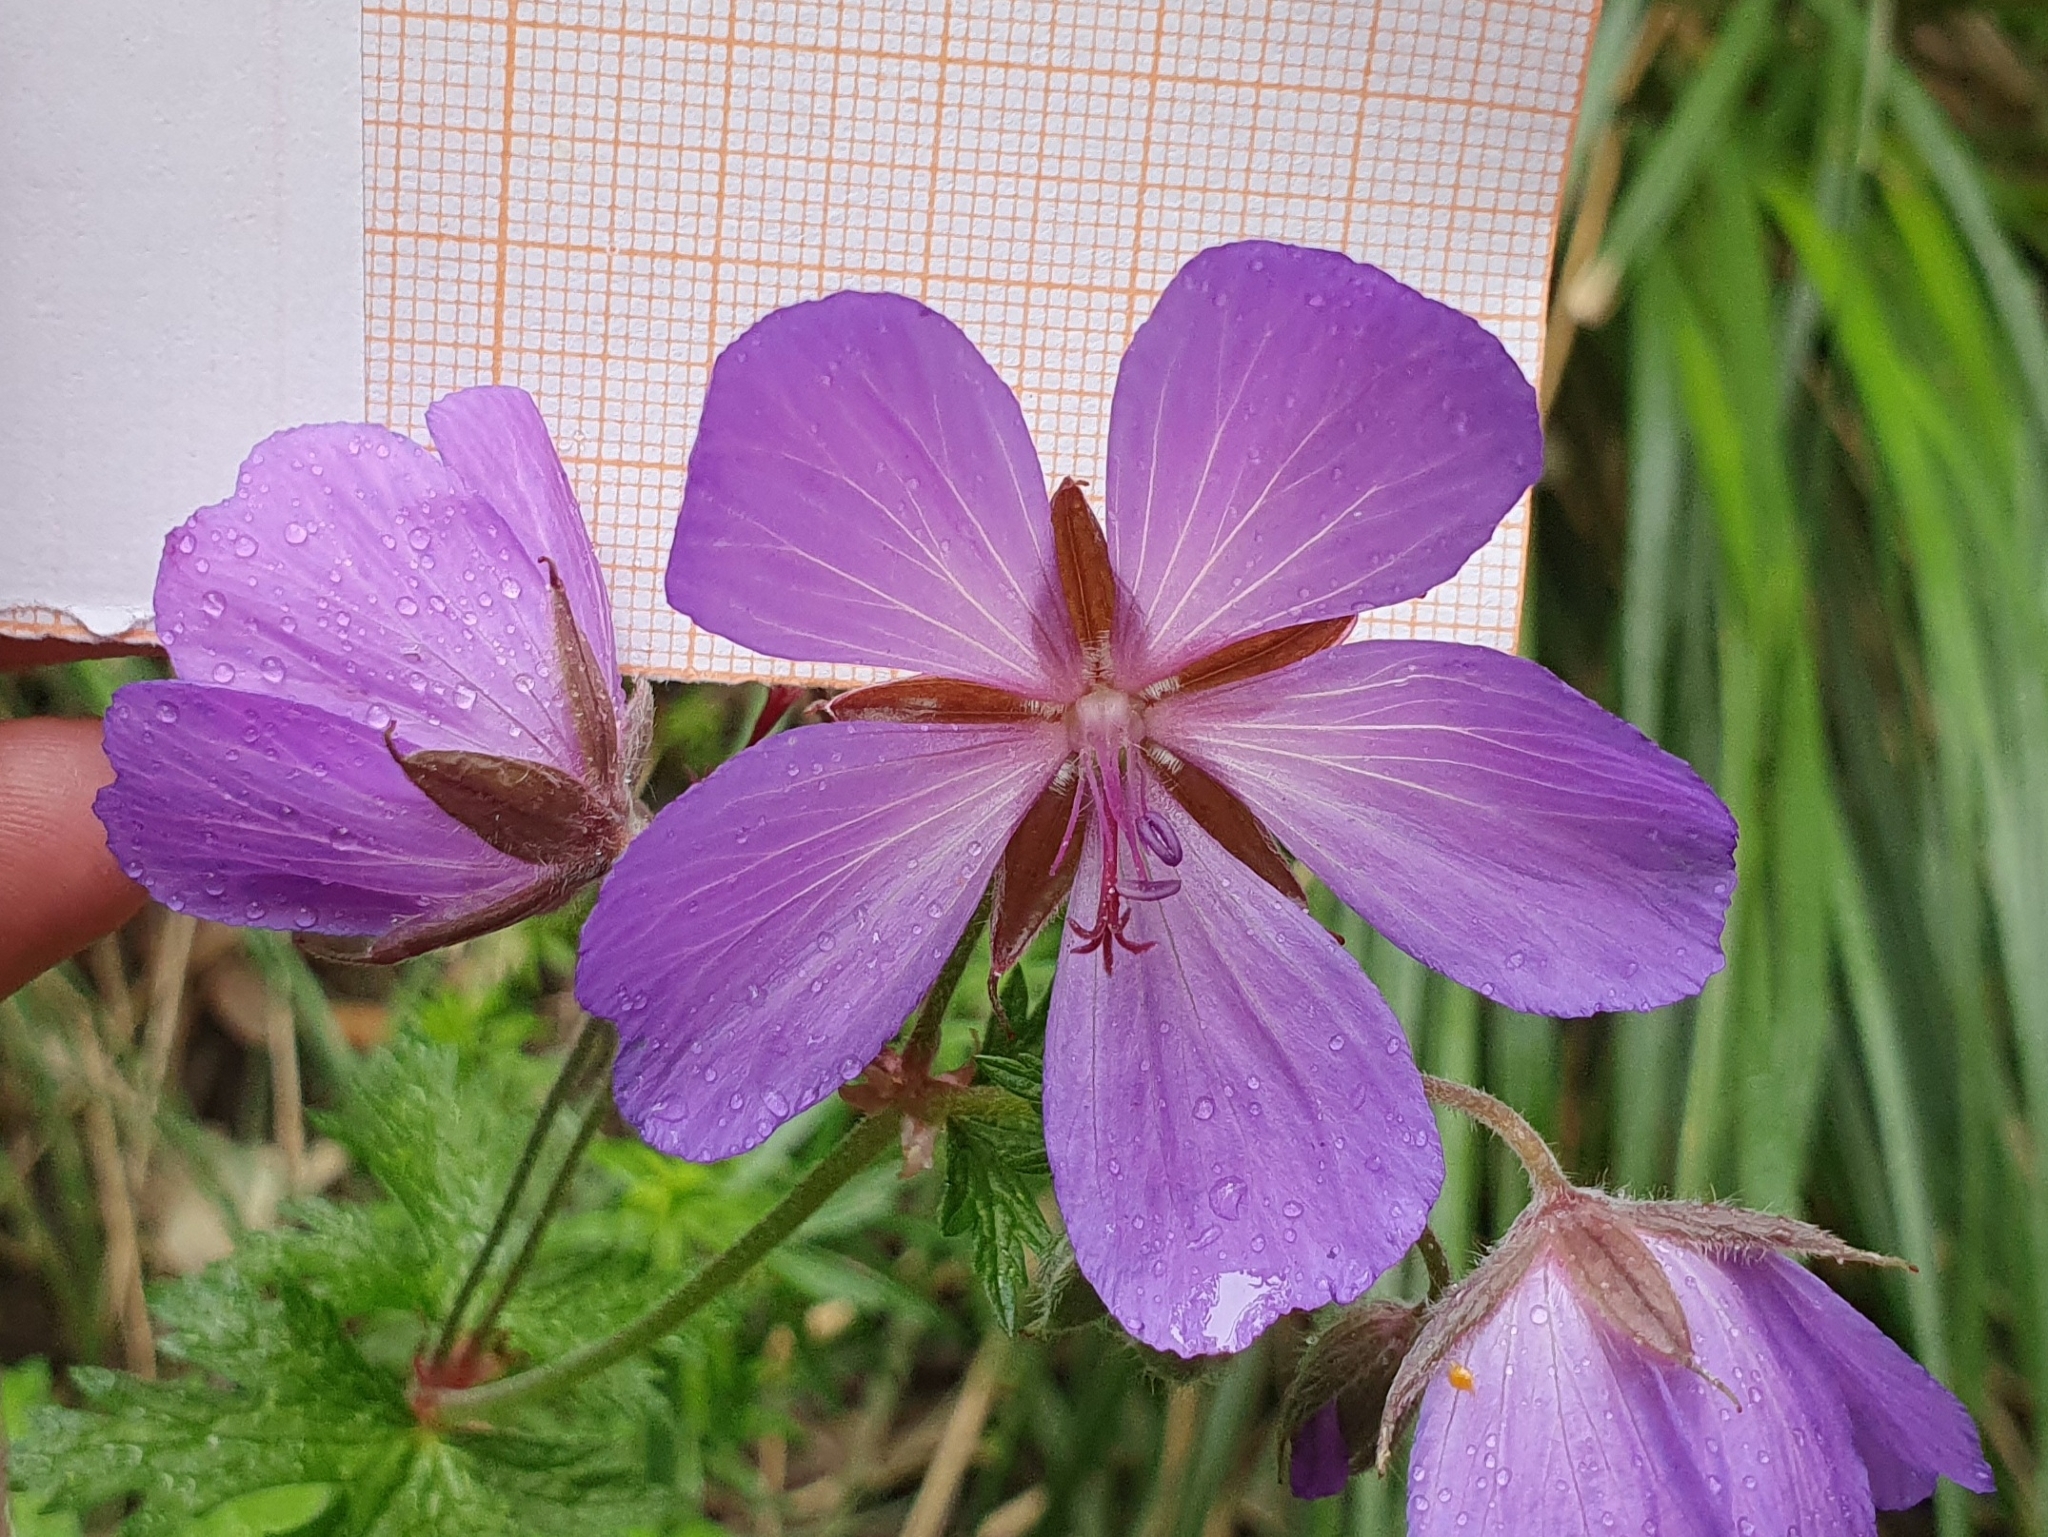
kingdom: Plantae
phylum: Tracheophyta
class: Magnoliopsida
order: Geraniales
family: Geraniaceae
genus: Geranium
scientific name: Geranium atlanticum
